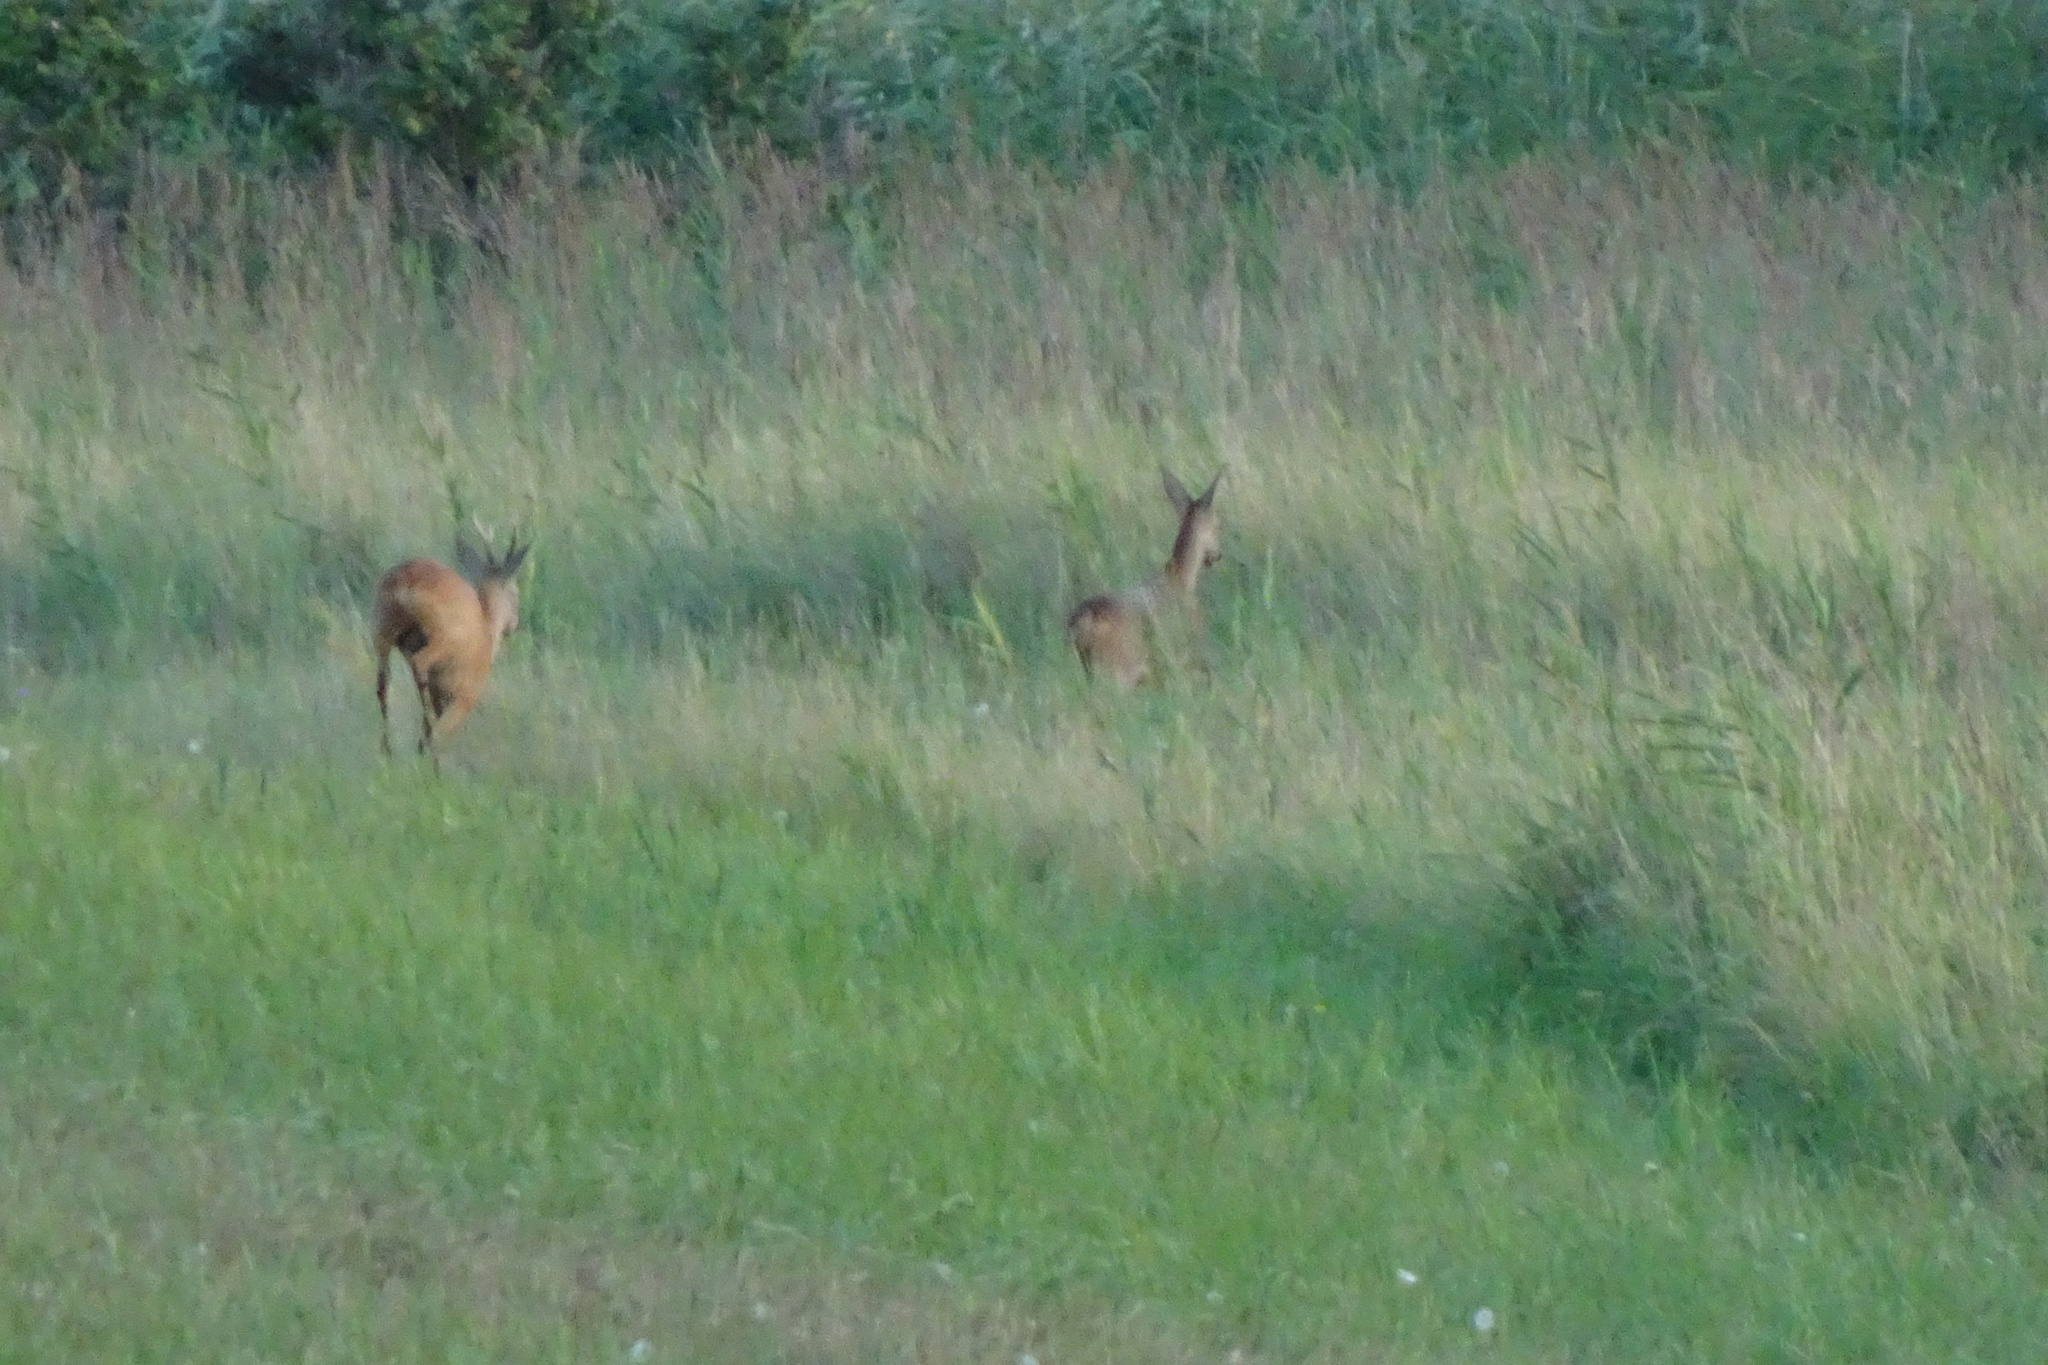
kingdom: Animalia
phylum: Chordata
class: Mammalia
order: Artiodactyla
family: Cervidae
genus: Capreolus
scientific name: Capreolus capreolus
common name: Western roe deer
